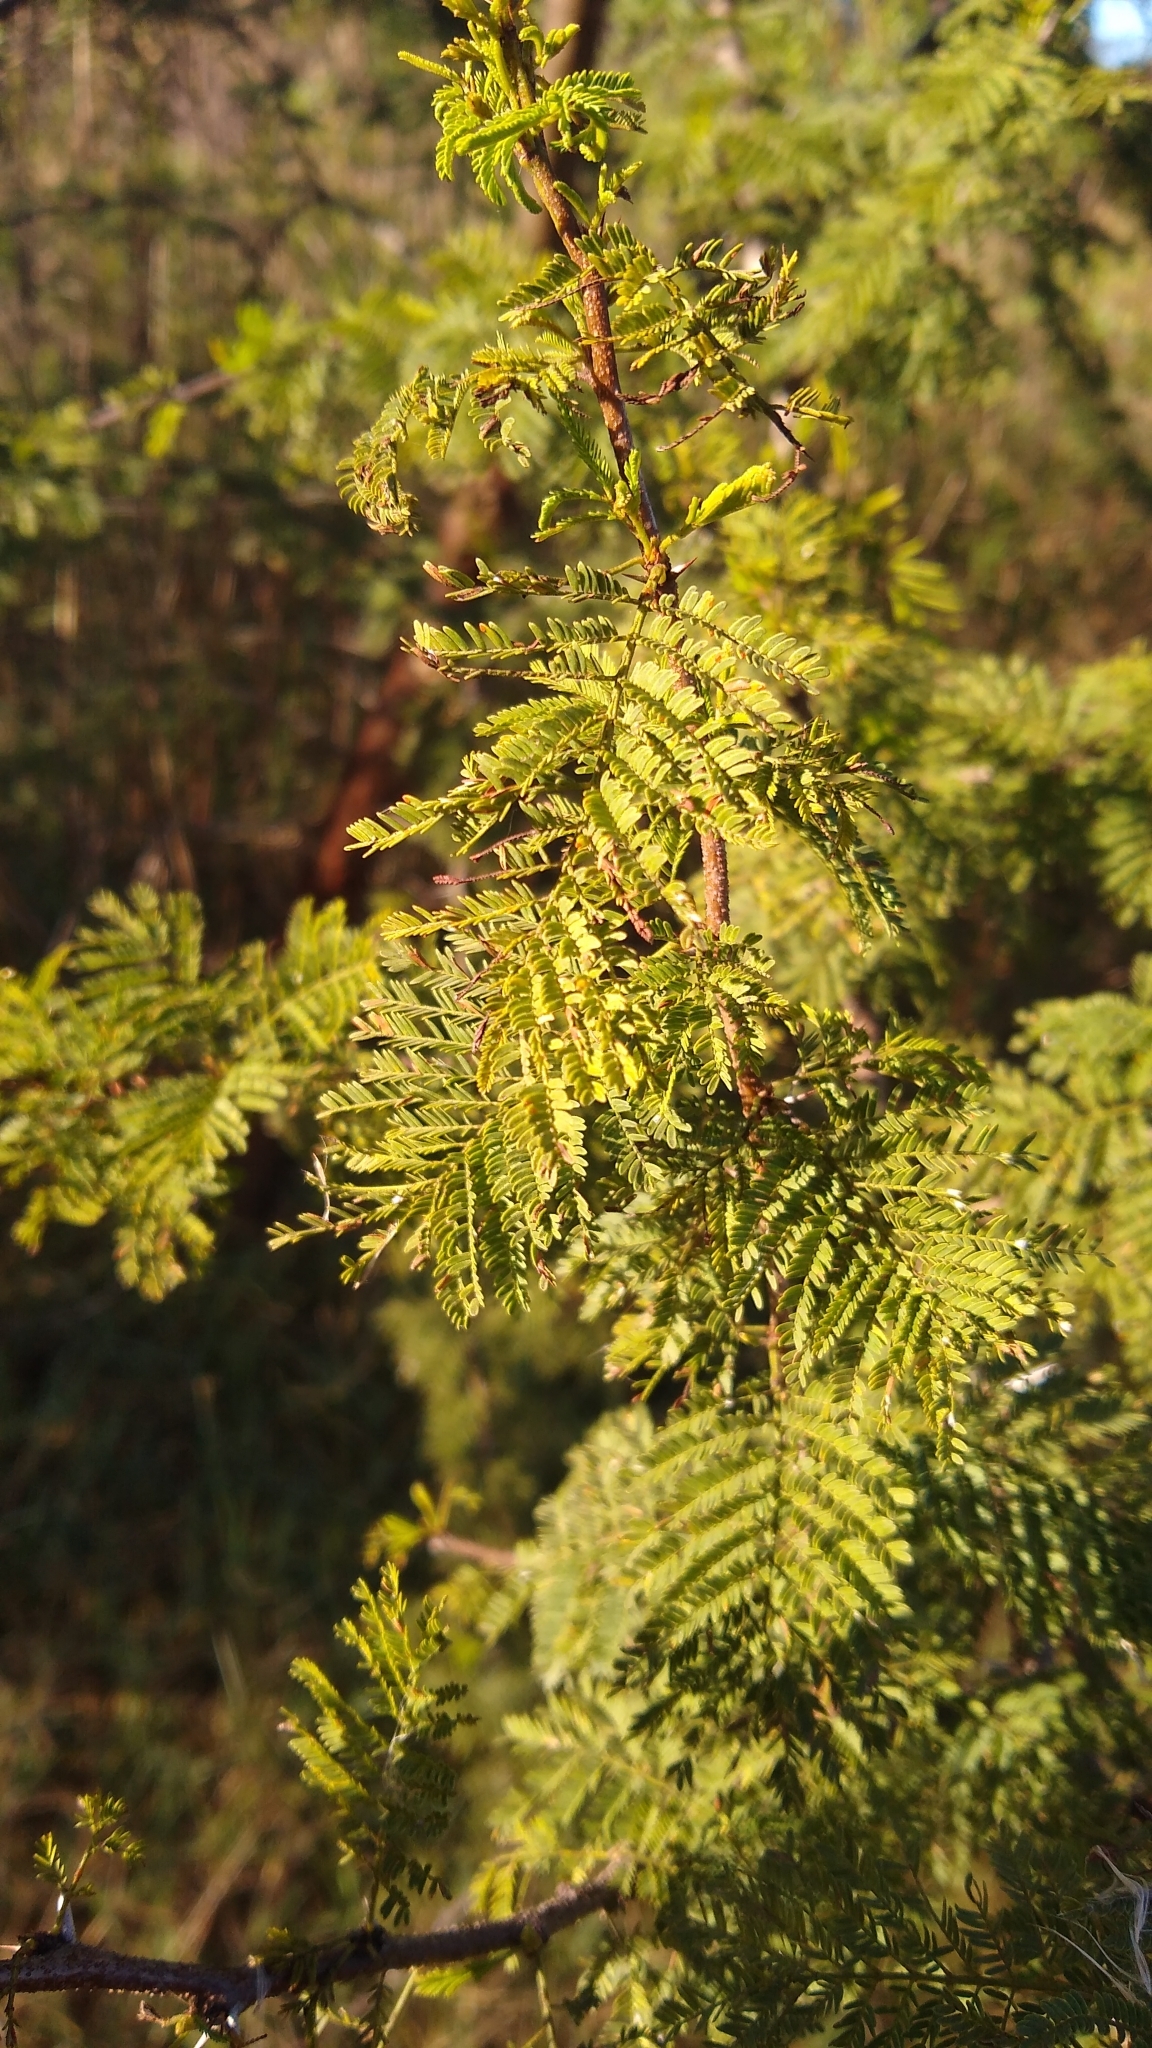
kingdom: Plantae
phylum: Tracheophyta
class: Magnoliopsida
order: Fabales
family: Fabaceae
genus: Vachellia
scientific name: Vachellia caven
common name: Roman cassie
